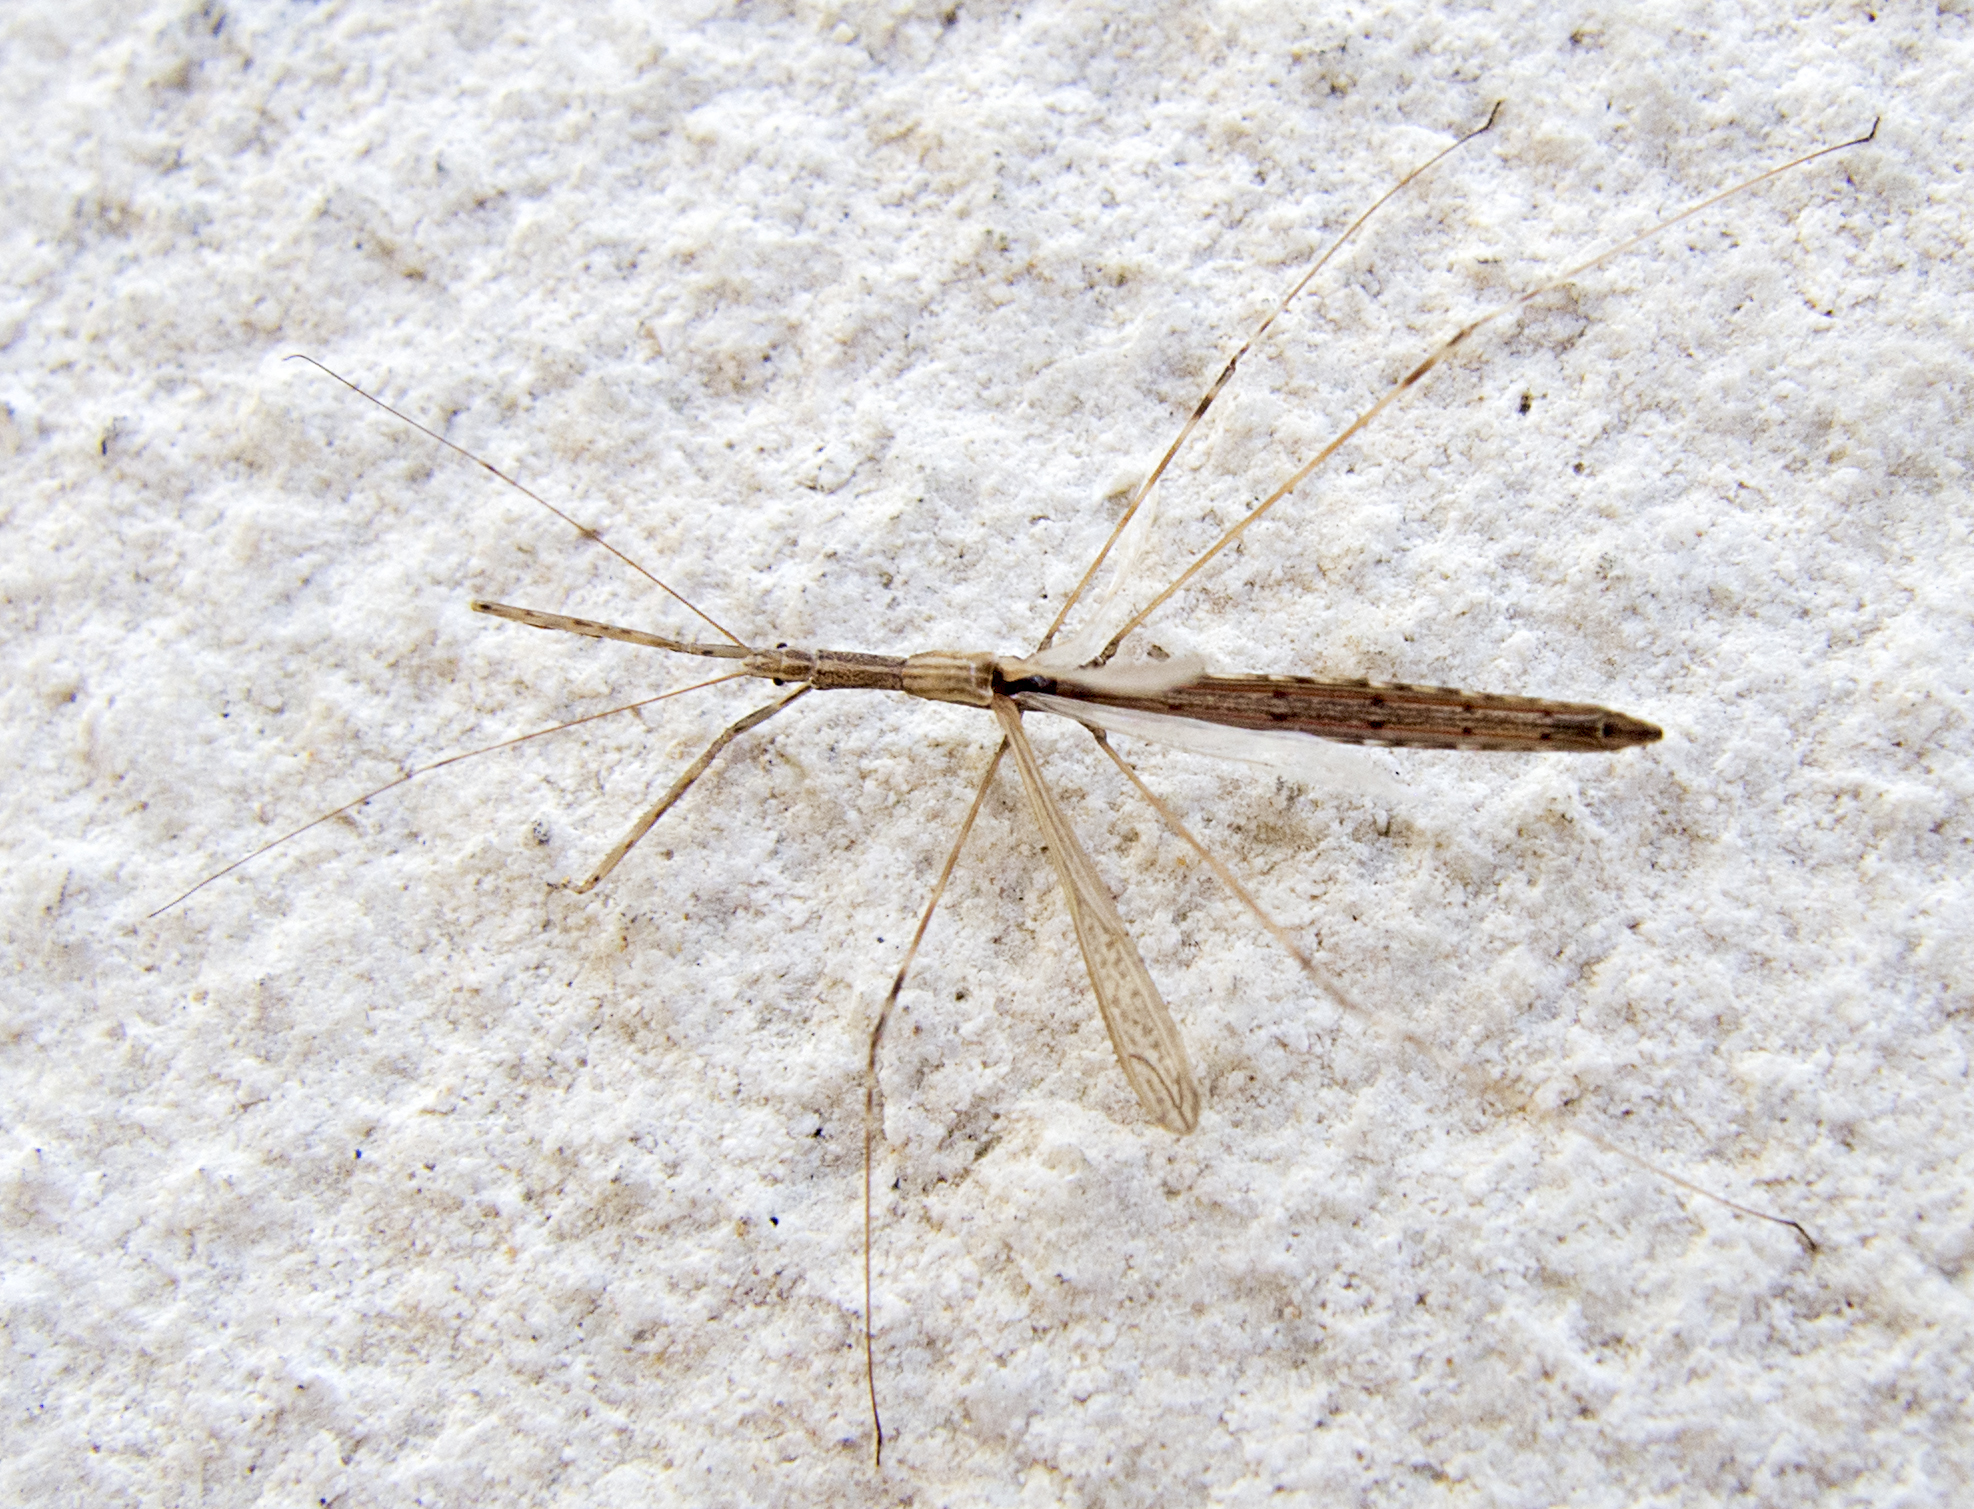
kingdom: Animalia
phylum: Arthropoda
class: Insecta
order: Hemiptera
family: Reduviidae
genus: Metapterus
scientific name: Metapterus caspicus
